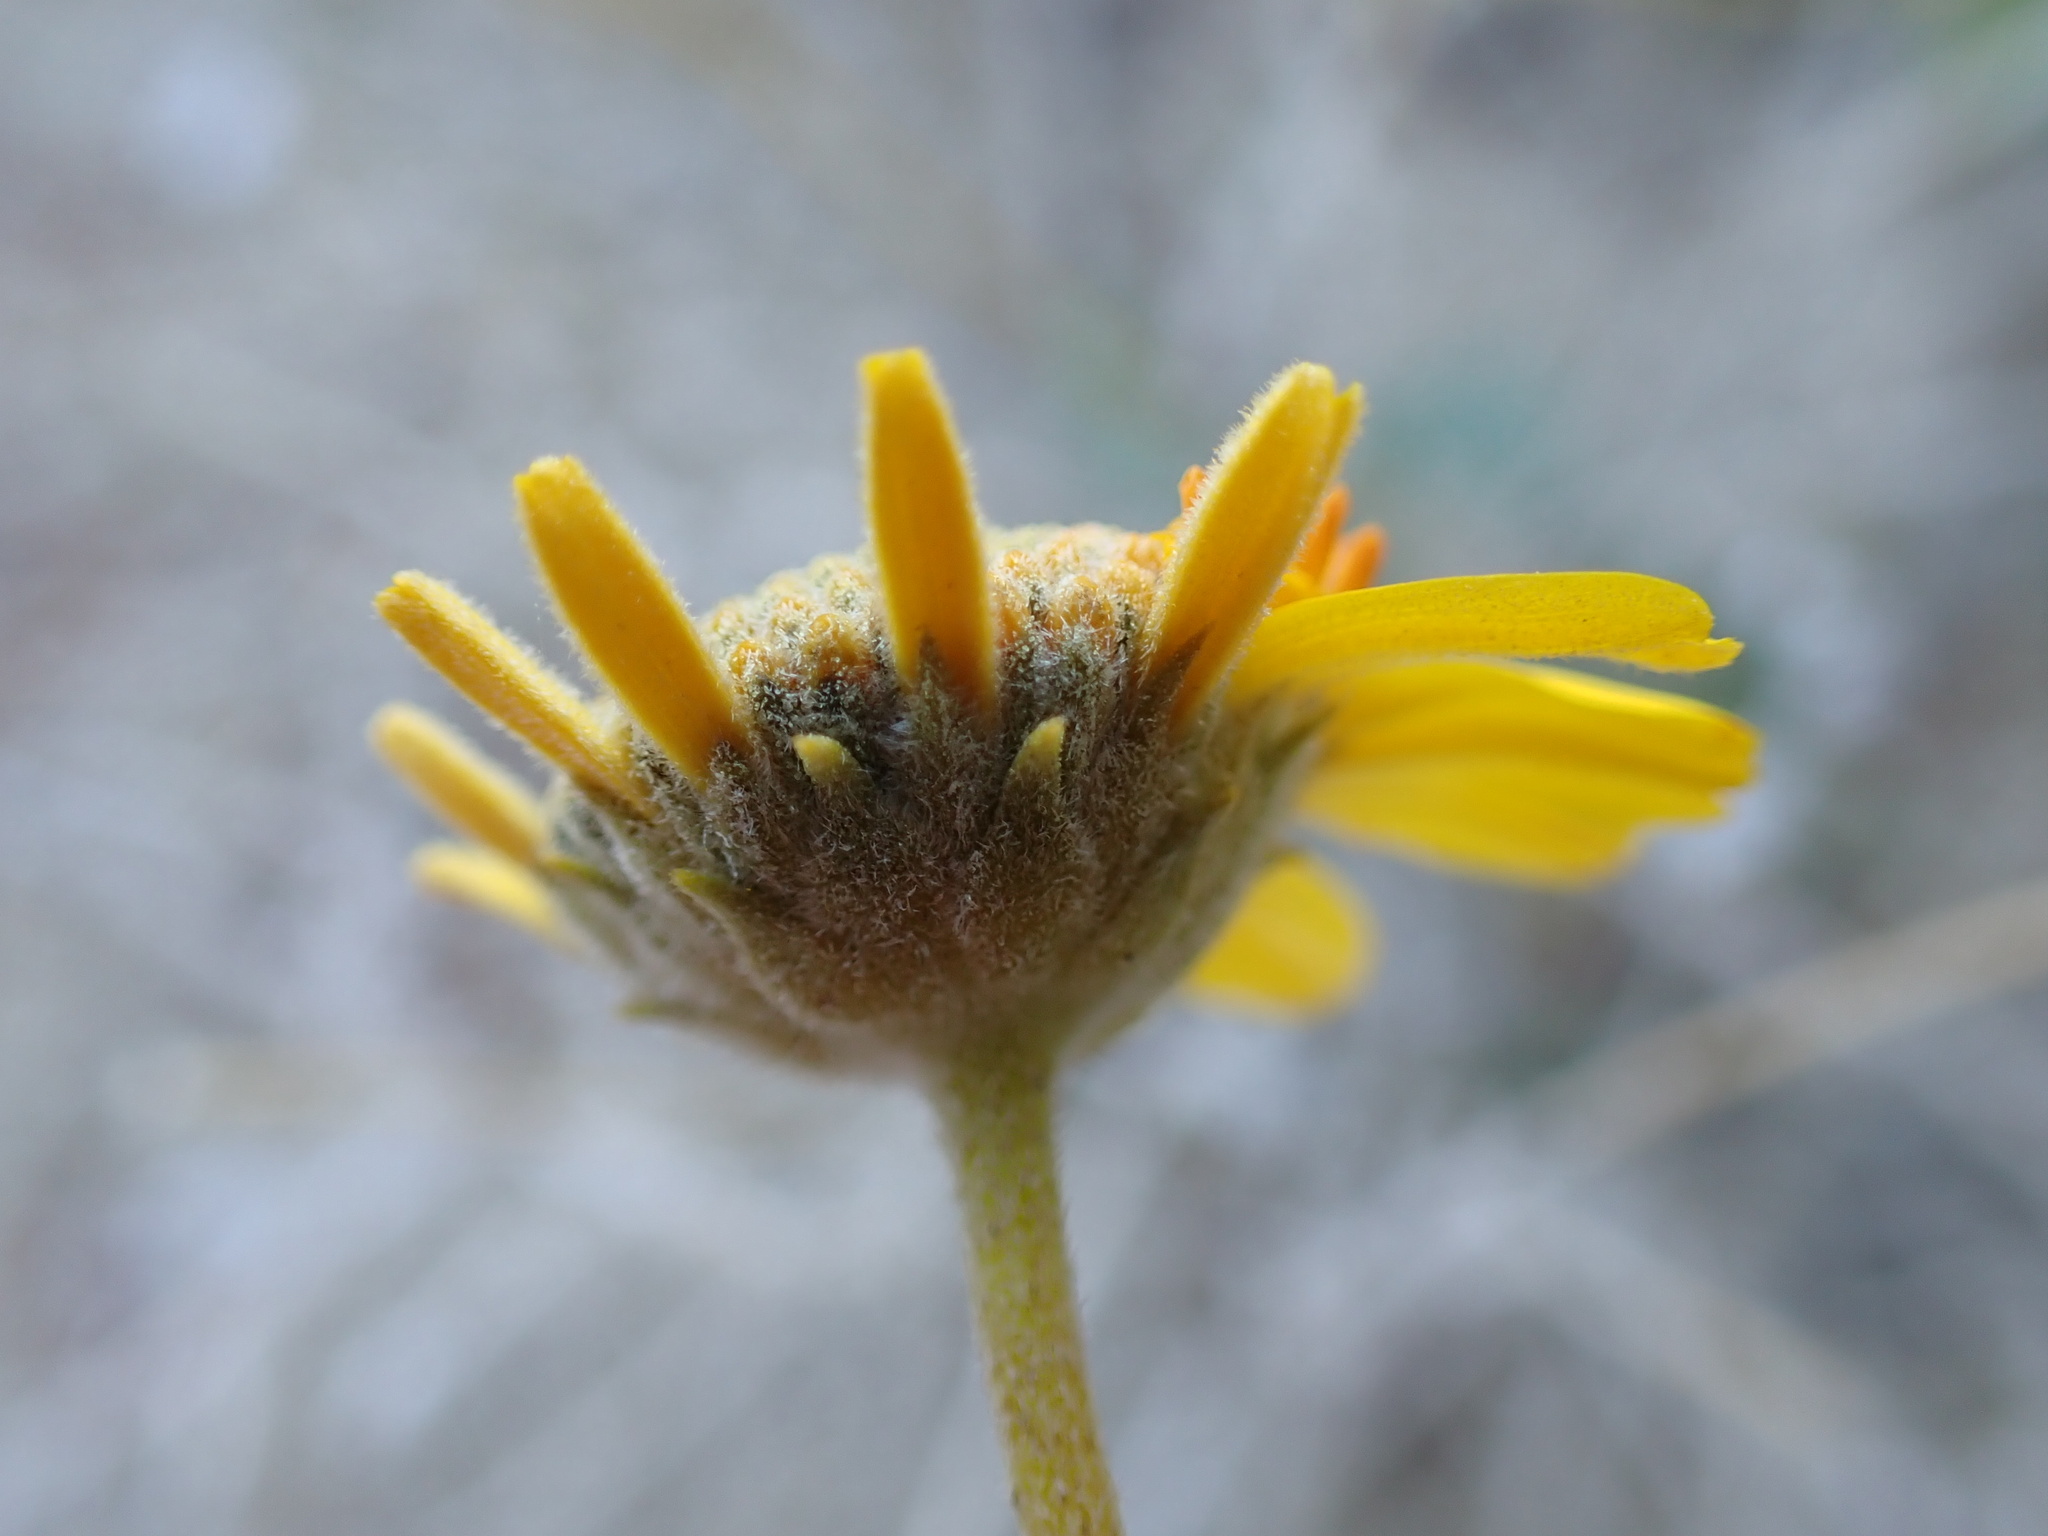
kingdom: Plantae
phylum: Tracheophyta
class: Magnoliopsida
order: Asterales
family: Asteraceae
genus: Encelia
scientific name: Encelia actoni
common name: Acton encelia
